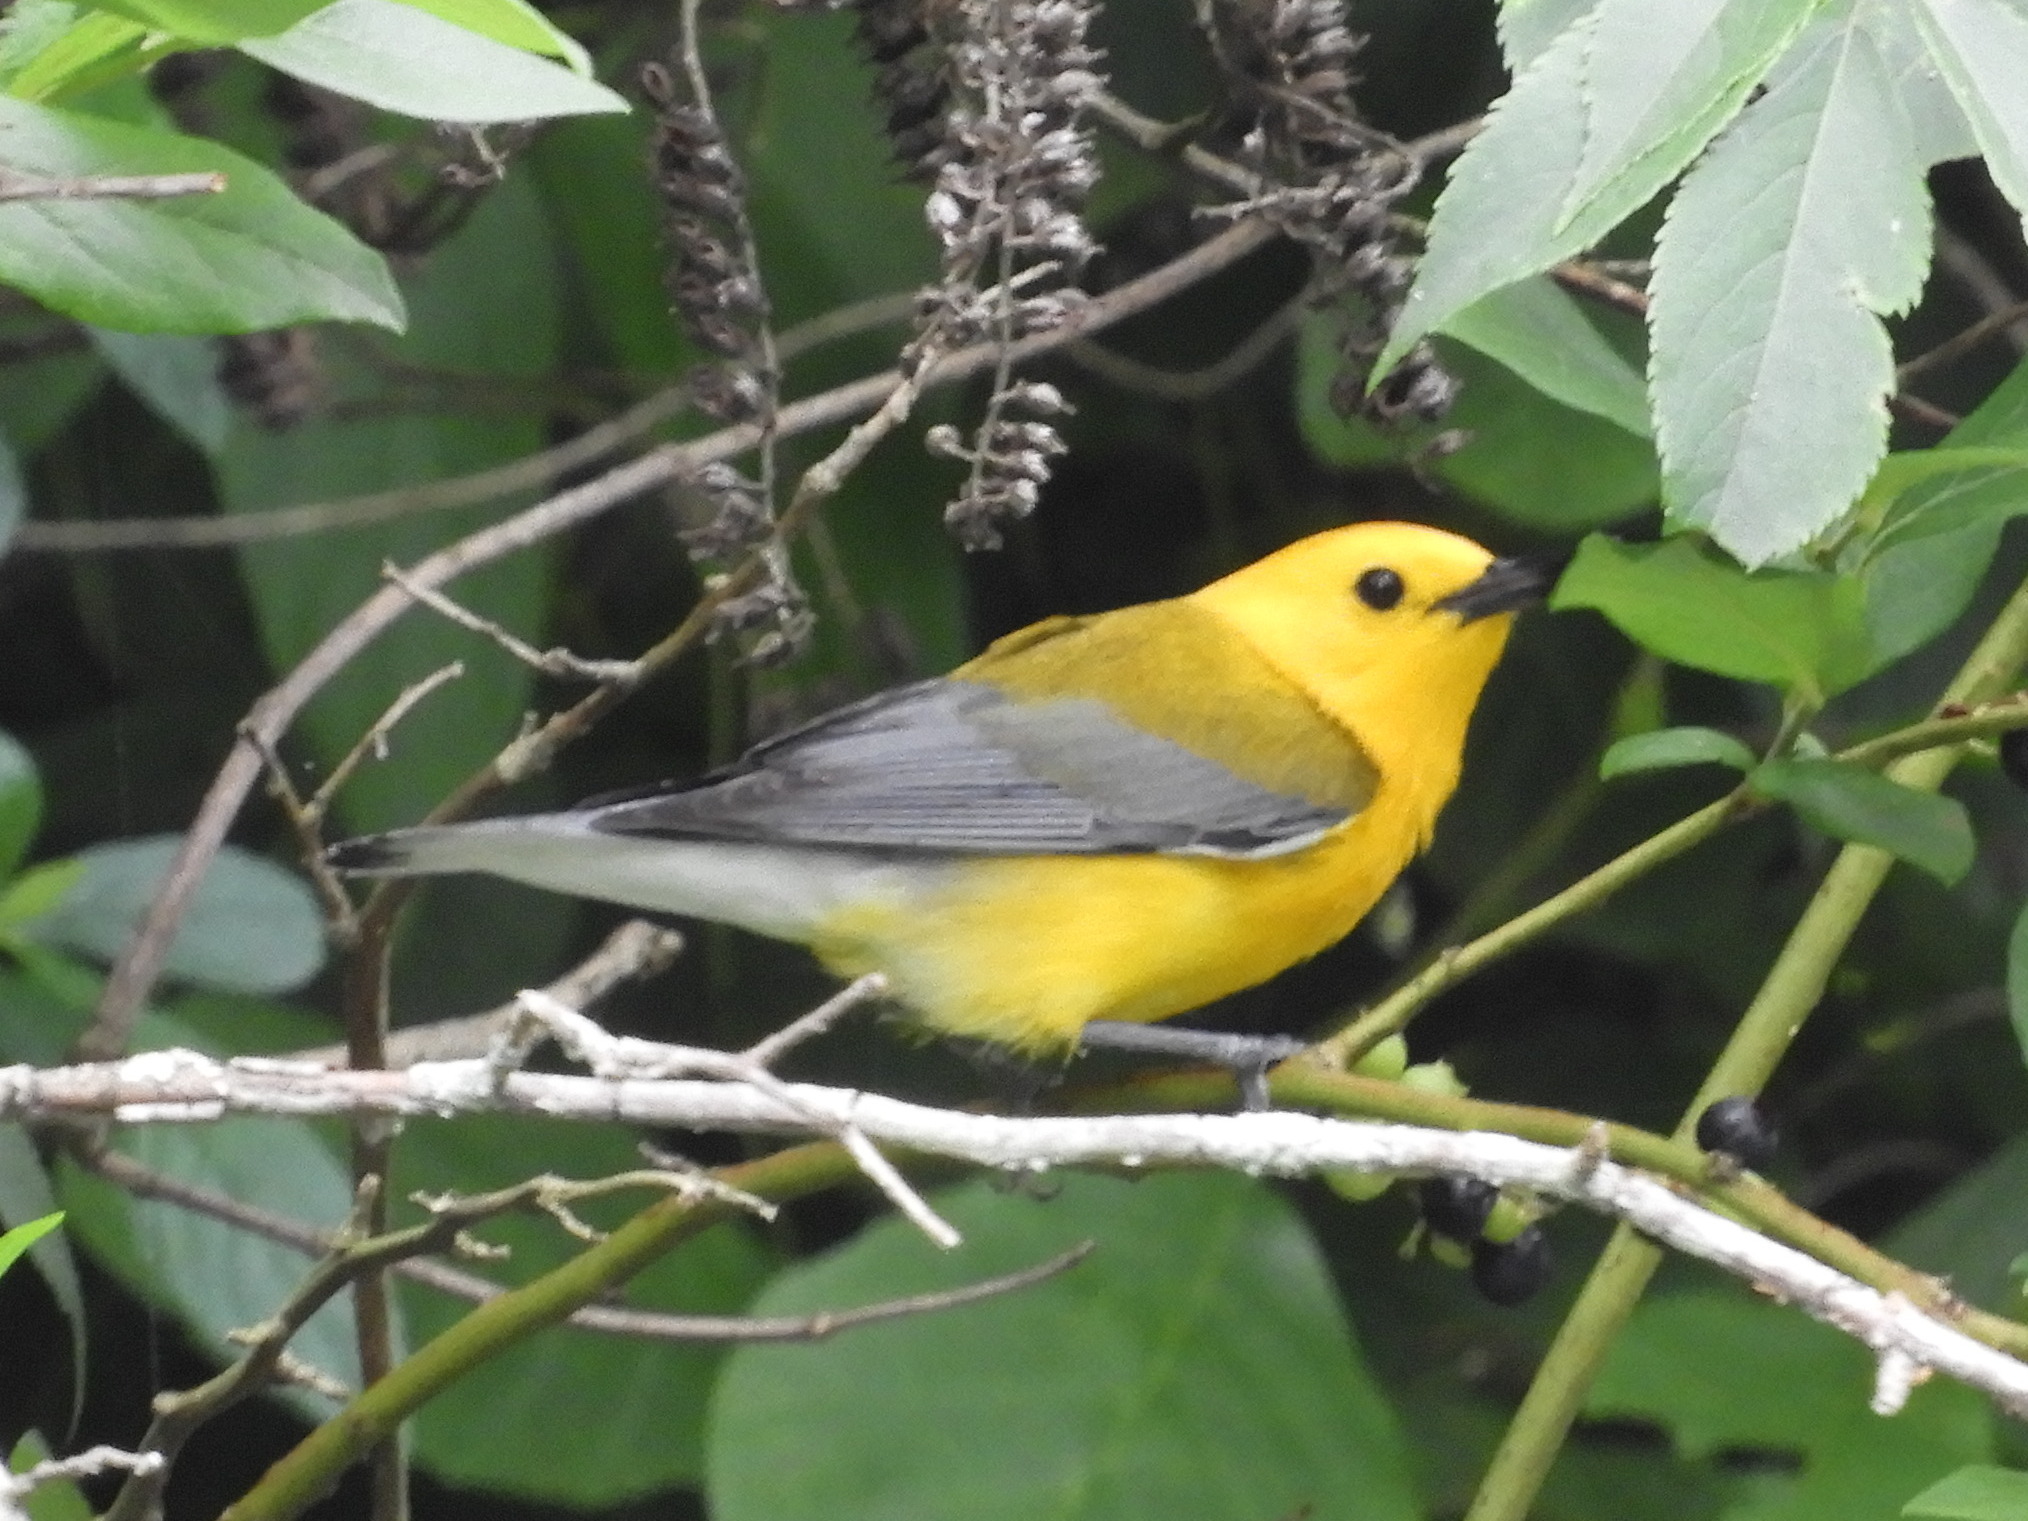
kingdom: Animalia
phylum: Chordata
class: Aves
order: Passeriformes
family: Parulidae
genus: Protonotaria
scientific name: Protonotaria citrea
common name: Prothonotary warbler
